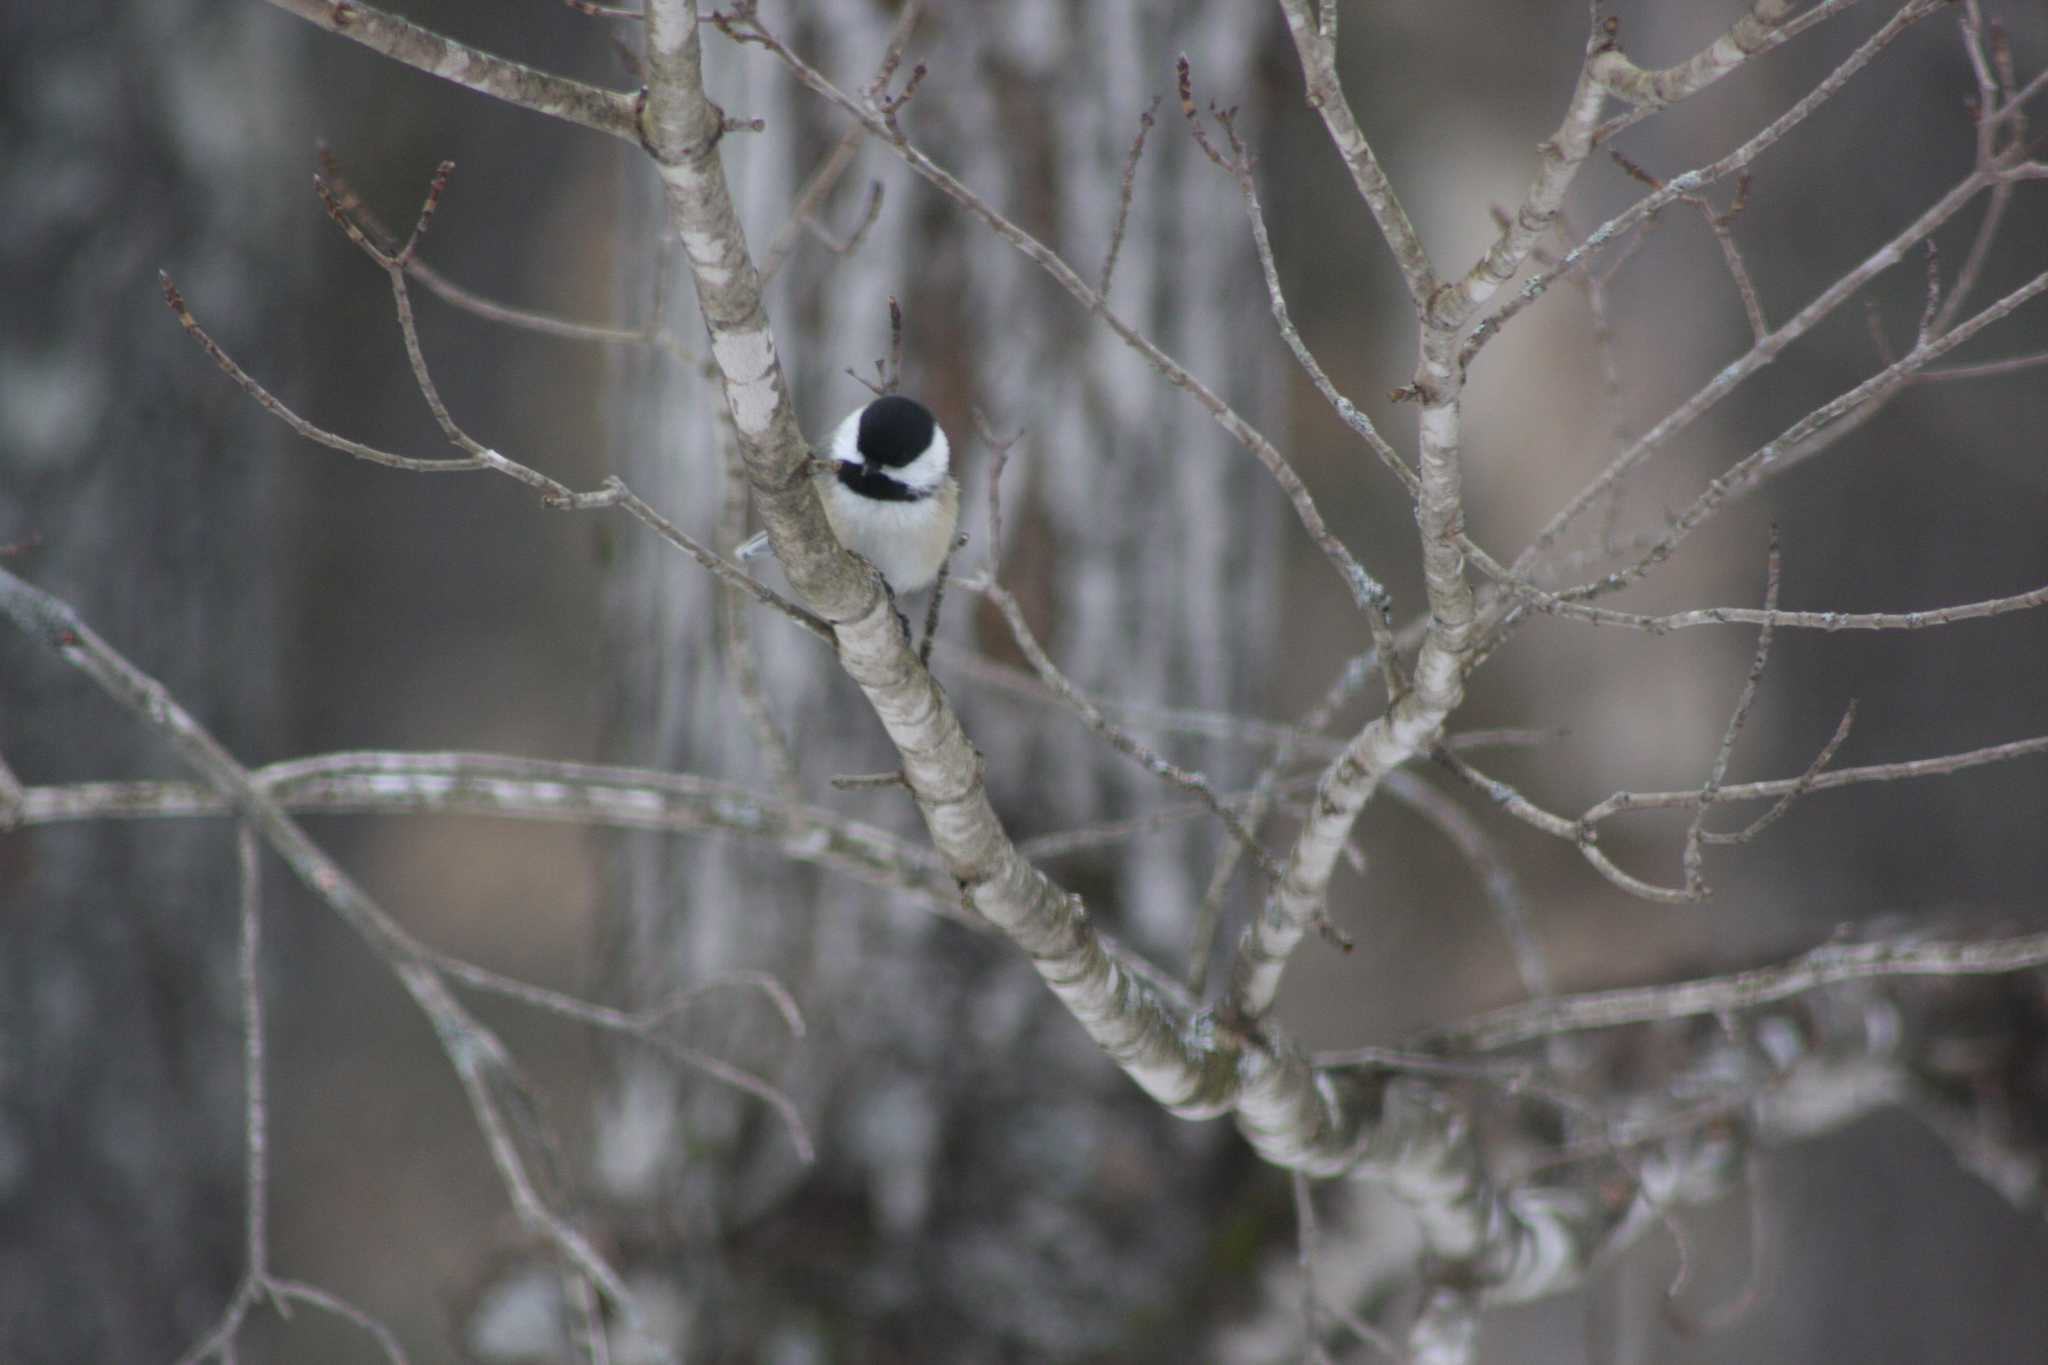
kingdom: Animalia
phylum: Chordata
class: Aves
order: Passeriformes
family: Paridae
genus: Poecile
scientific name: Poecile atricapillus
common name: Black-capped chickadee
